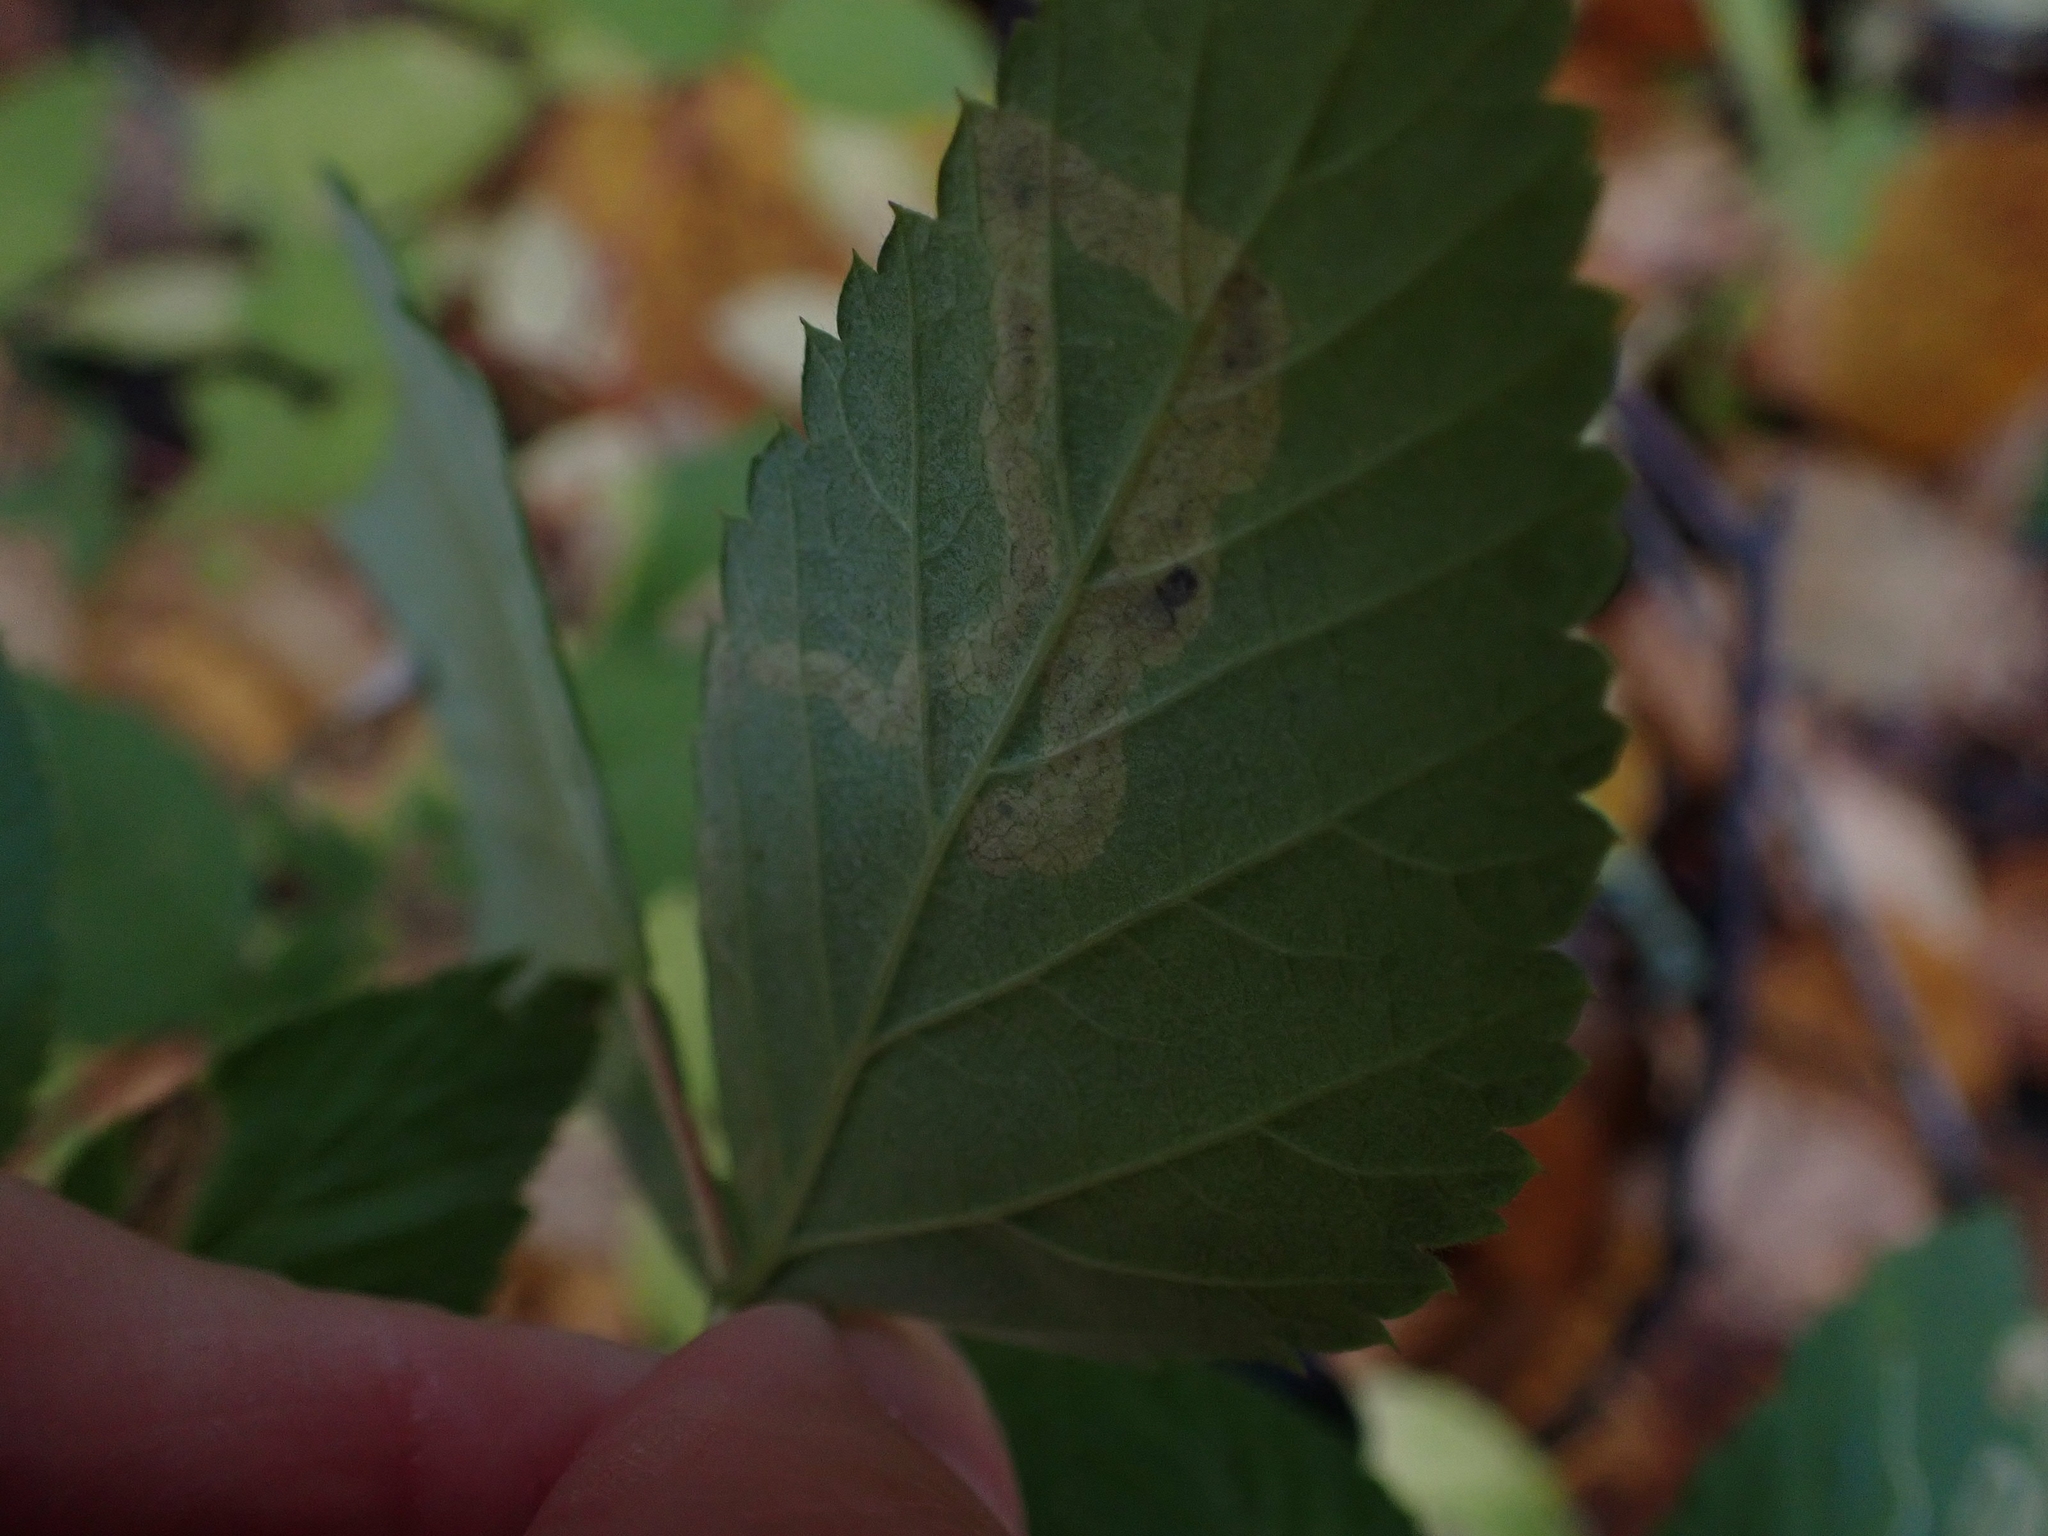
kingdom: Animalia
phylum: Arthropoda
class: Insecta
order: Diptera
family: Agromyzidae
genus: Agromyza
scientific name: Agromyza vockerothi
